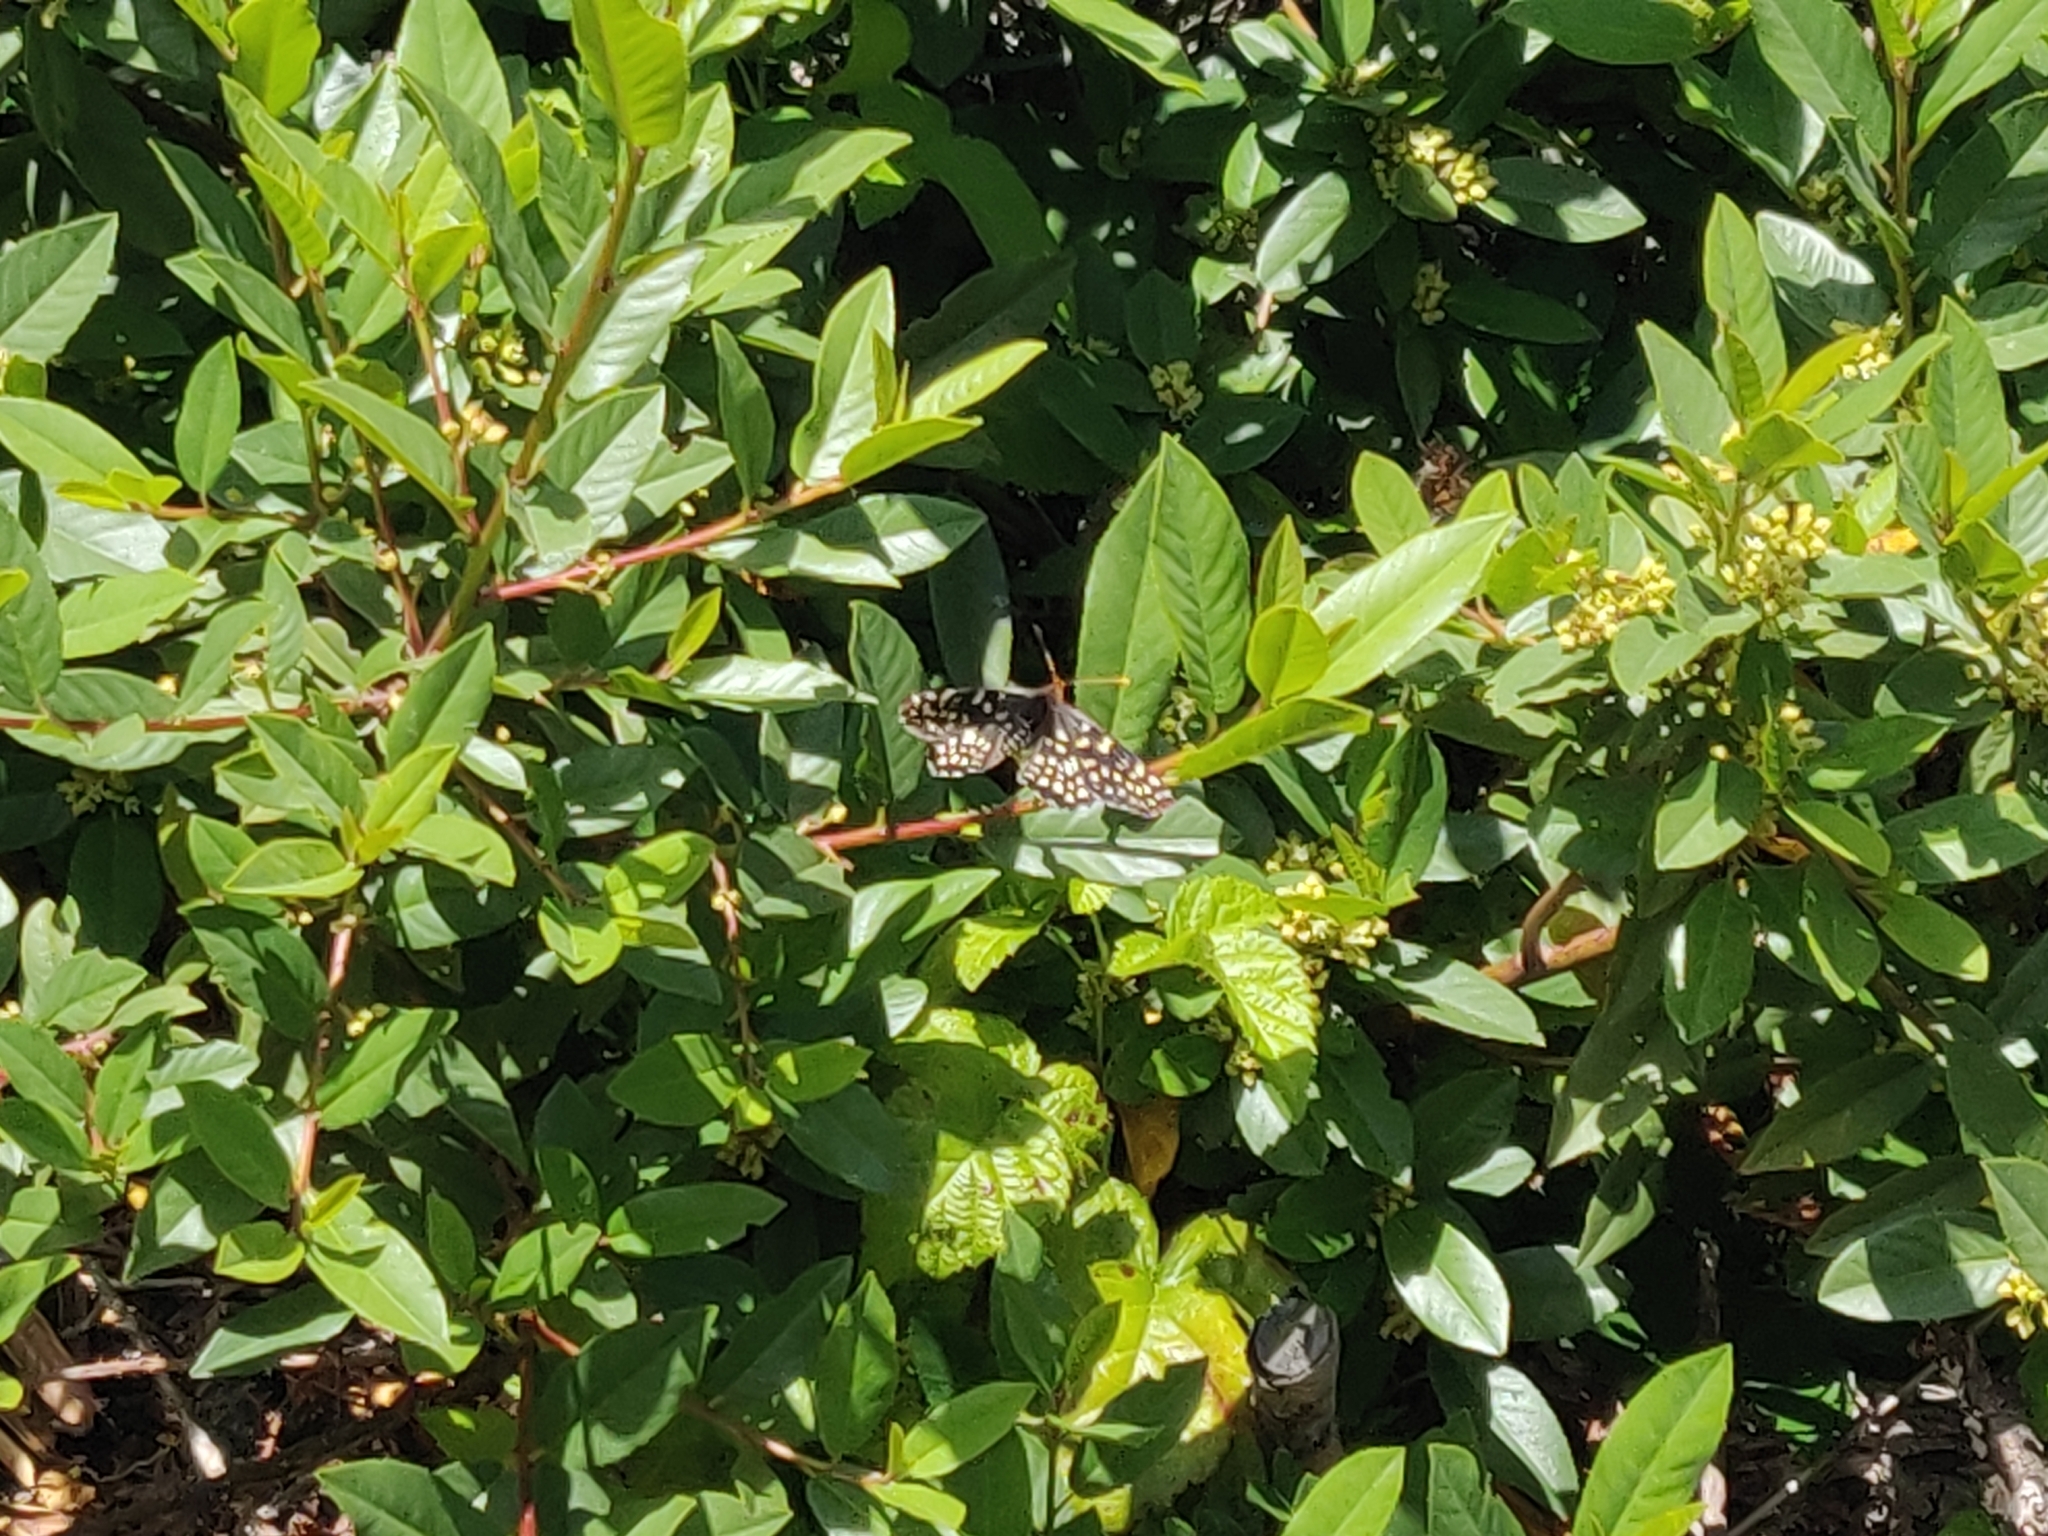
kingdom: Animalia
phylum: Arthropoda
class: Insecta
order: Lepidoptera
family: Nymphalidae
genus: Occidryas
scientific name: Occidryas chalcedona
